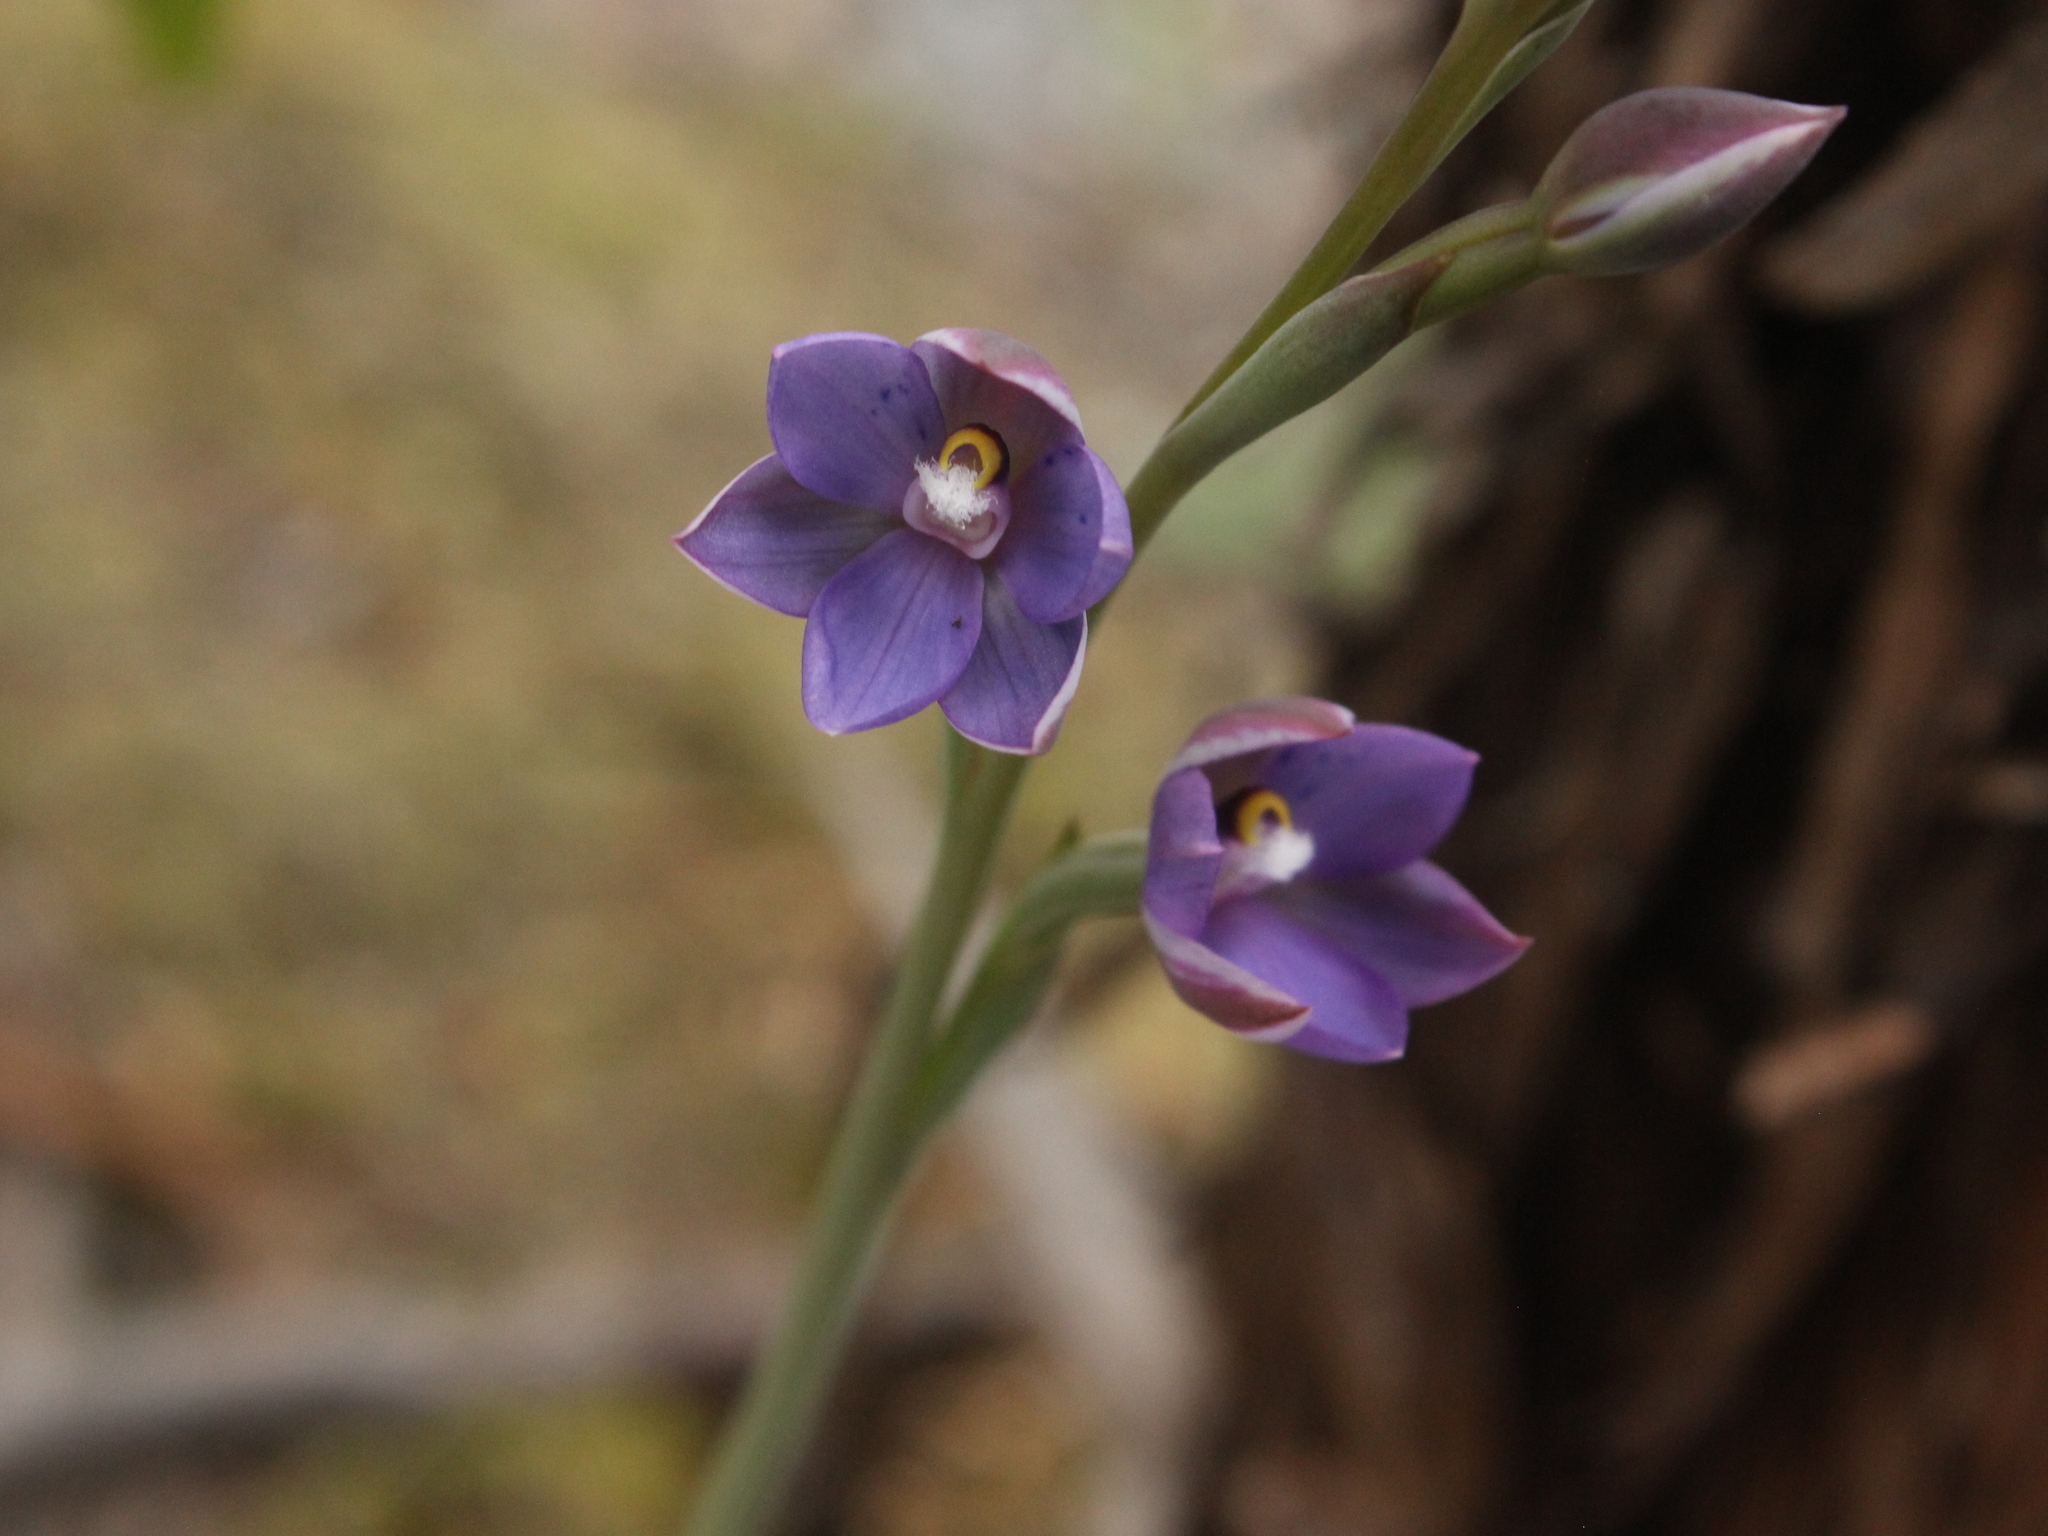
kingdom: Plantae
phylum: Tracheophyta
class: Liliopsida
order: Asparagales
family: Orchidaceae
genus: Thelymitra
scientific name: Thelymitra nervosa
